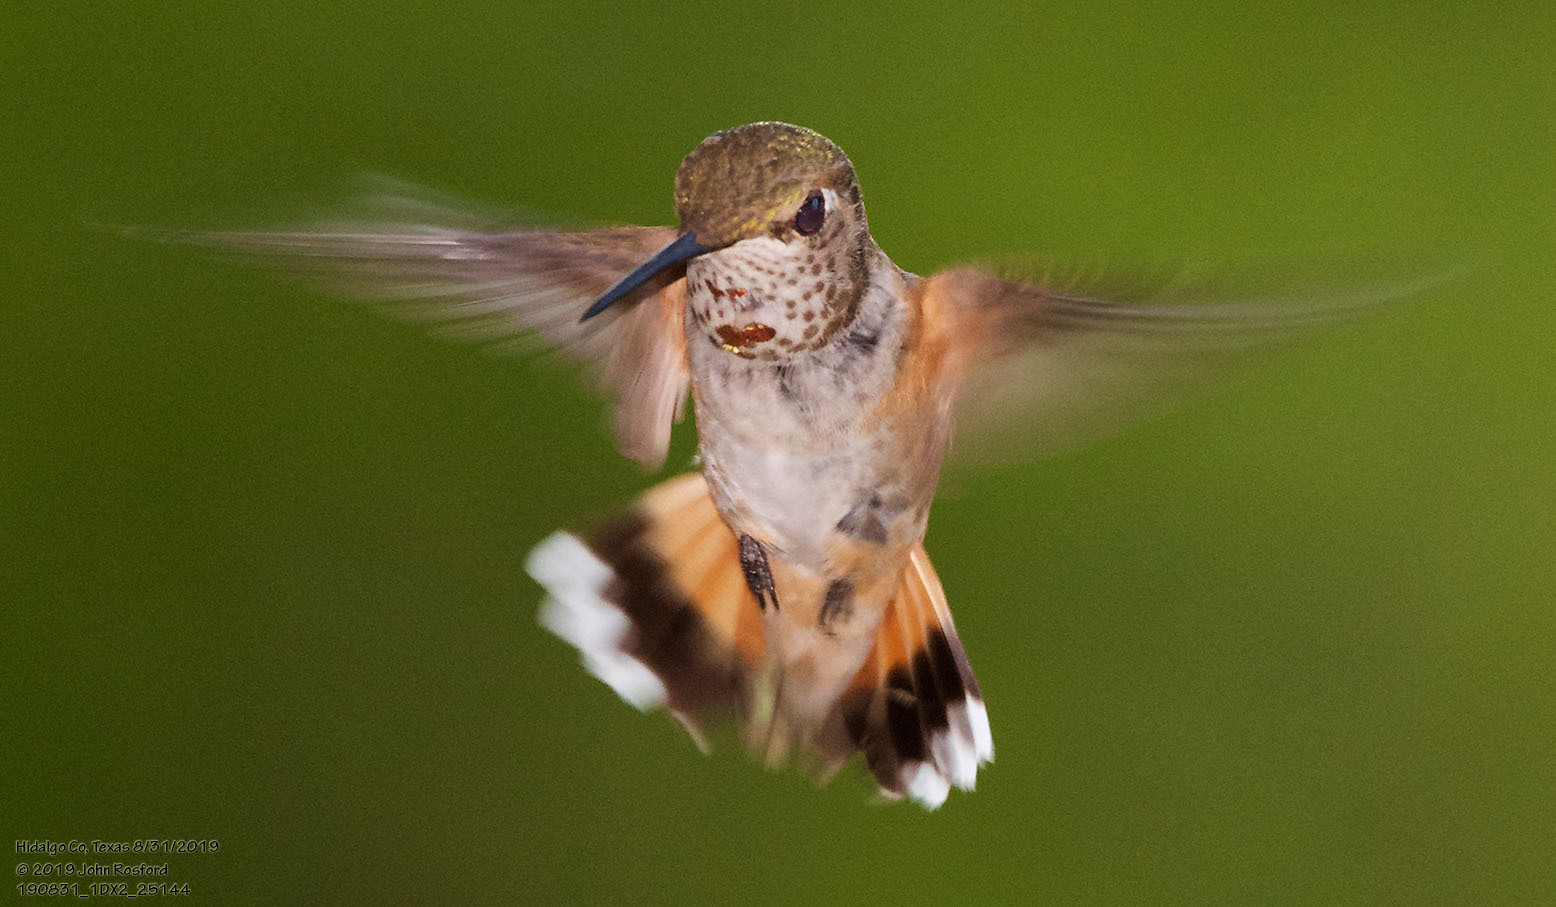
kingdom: Animalia
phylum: Chordata
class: Aves
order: Apodiformes
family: Trochilidae
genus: Selasphorus
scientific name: Selasphorus rufus
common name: Rufous hummingbird
